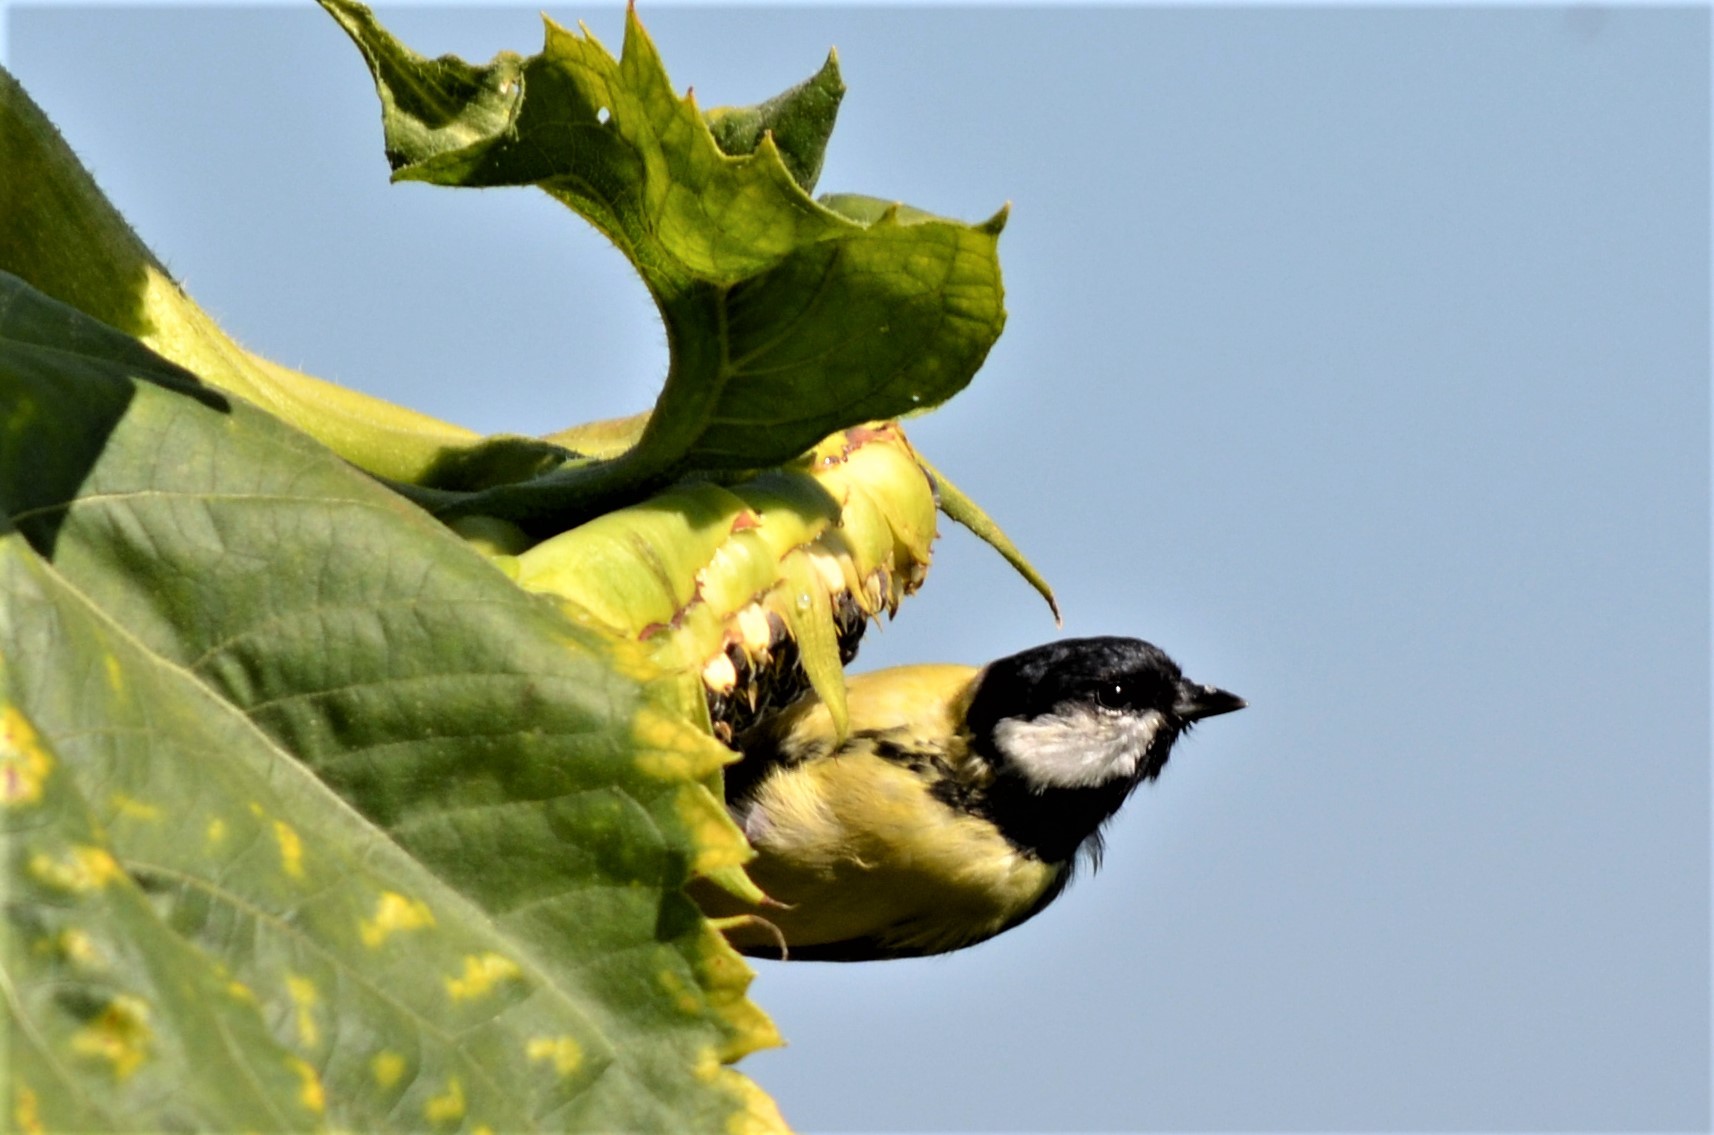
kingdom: Animalia
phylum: Chordata
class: Aves
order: Passeriformes
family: Paridae
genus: Parus
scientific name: Parus major
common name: Great tit
